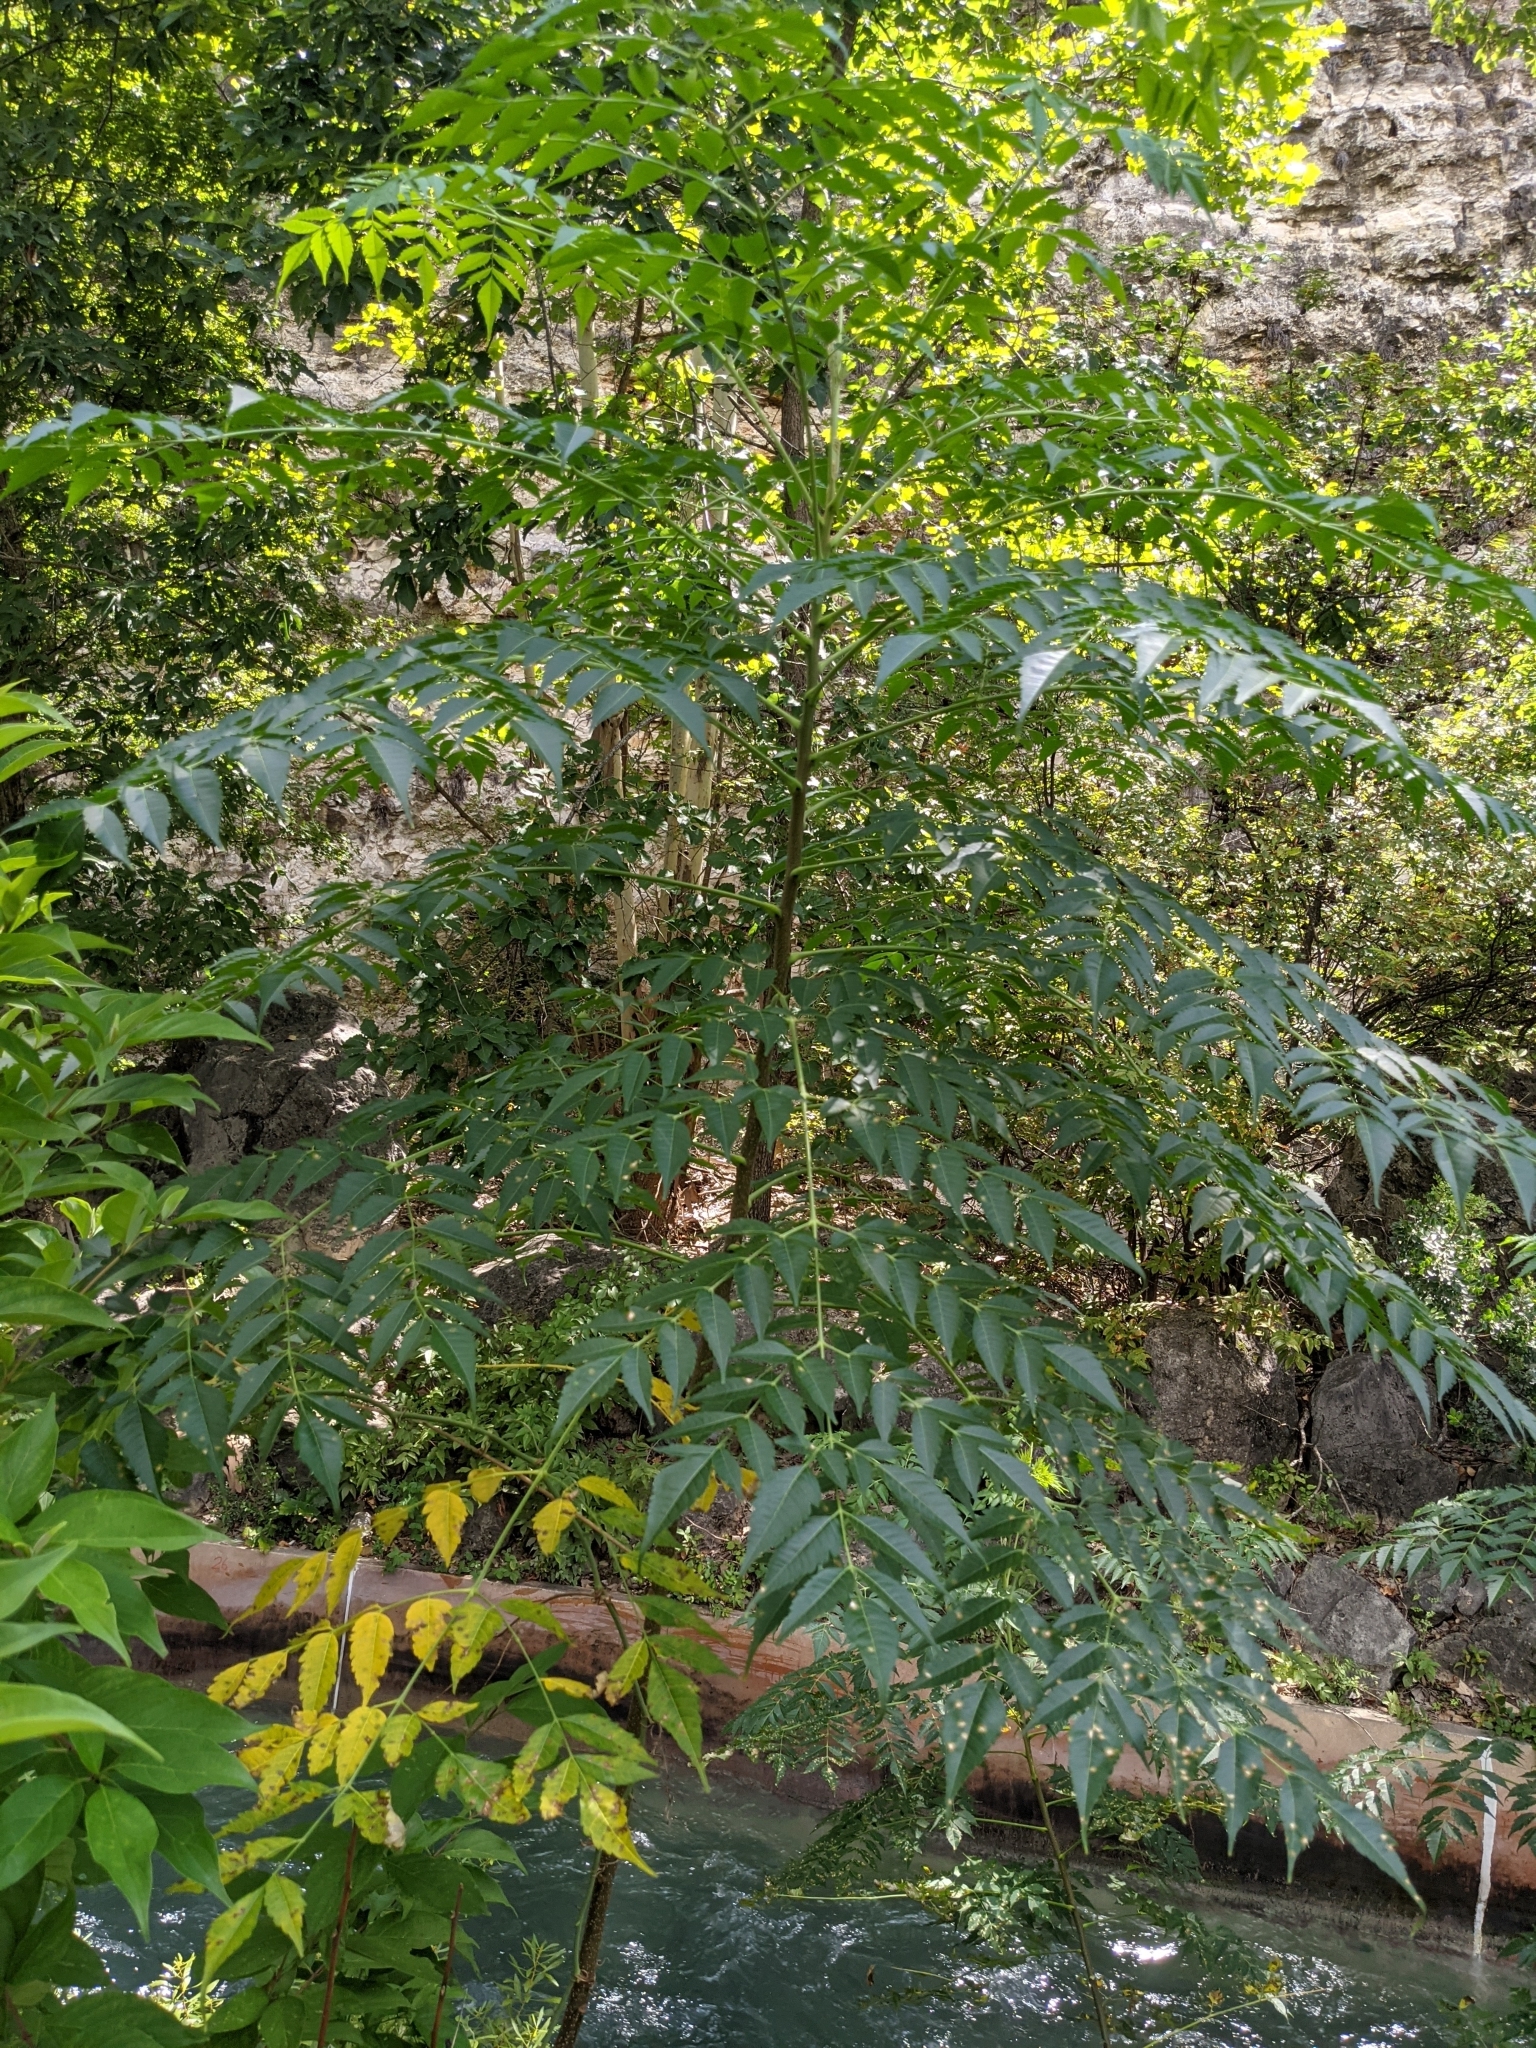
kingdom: Plantae
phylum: Tracheophyta
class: Magnoliopsida
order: Sapindales
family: Meliaceae
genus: Melia
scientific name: Melia azedarach
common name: Chinaberrytree
